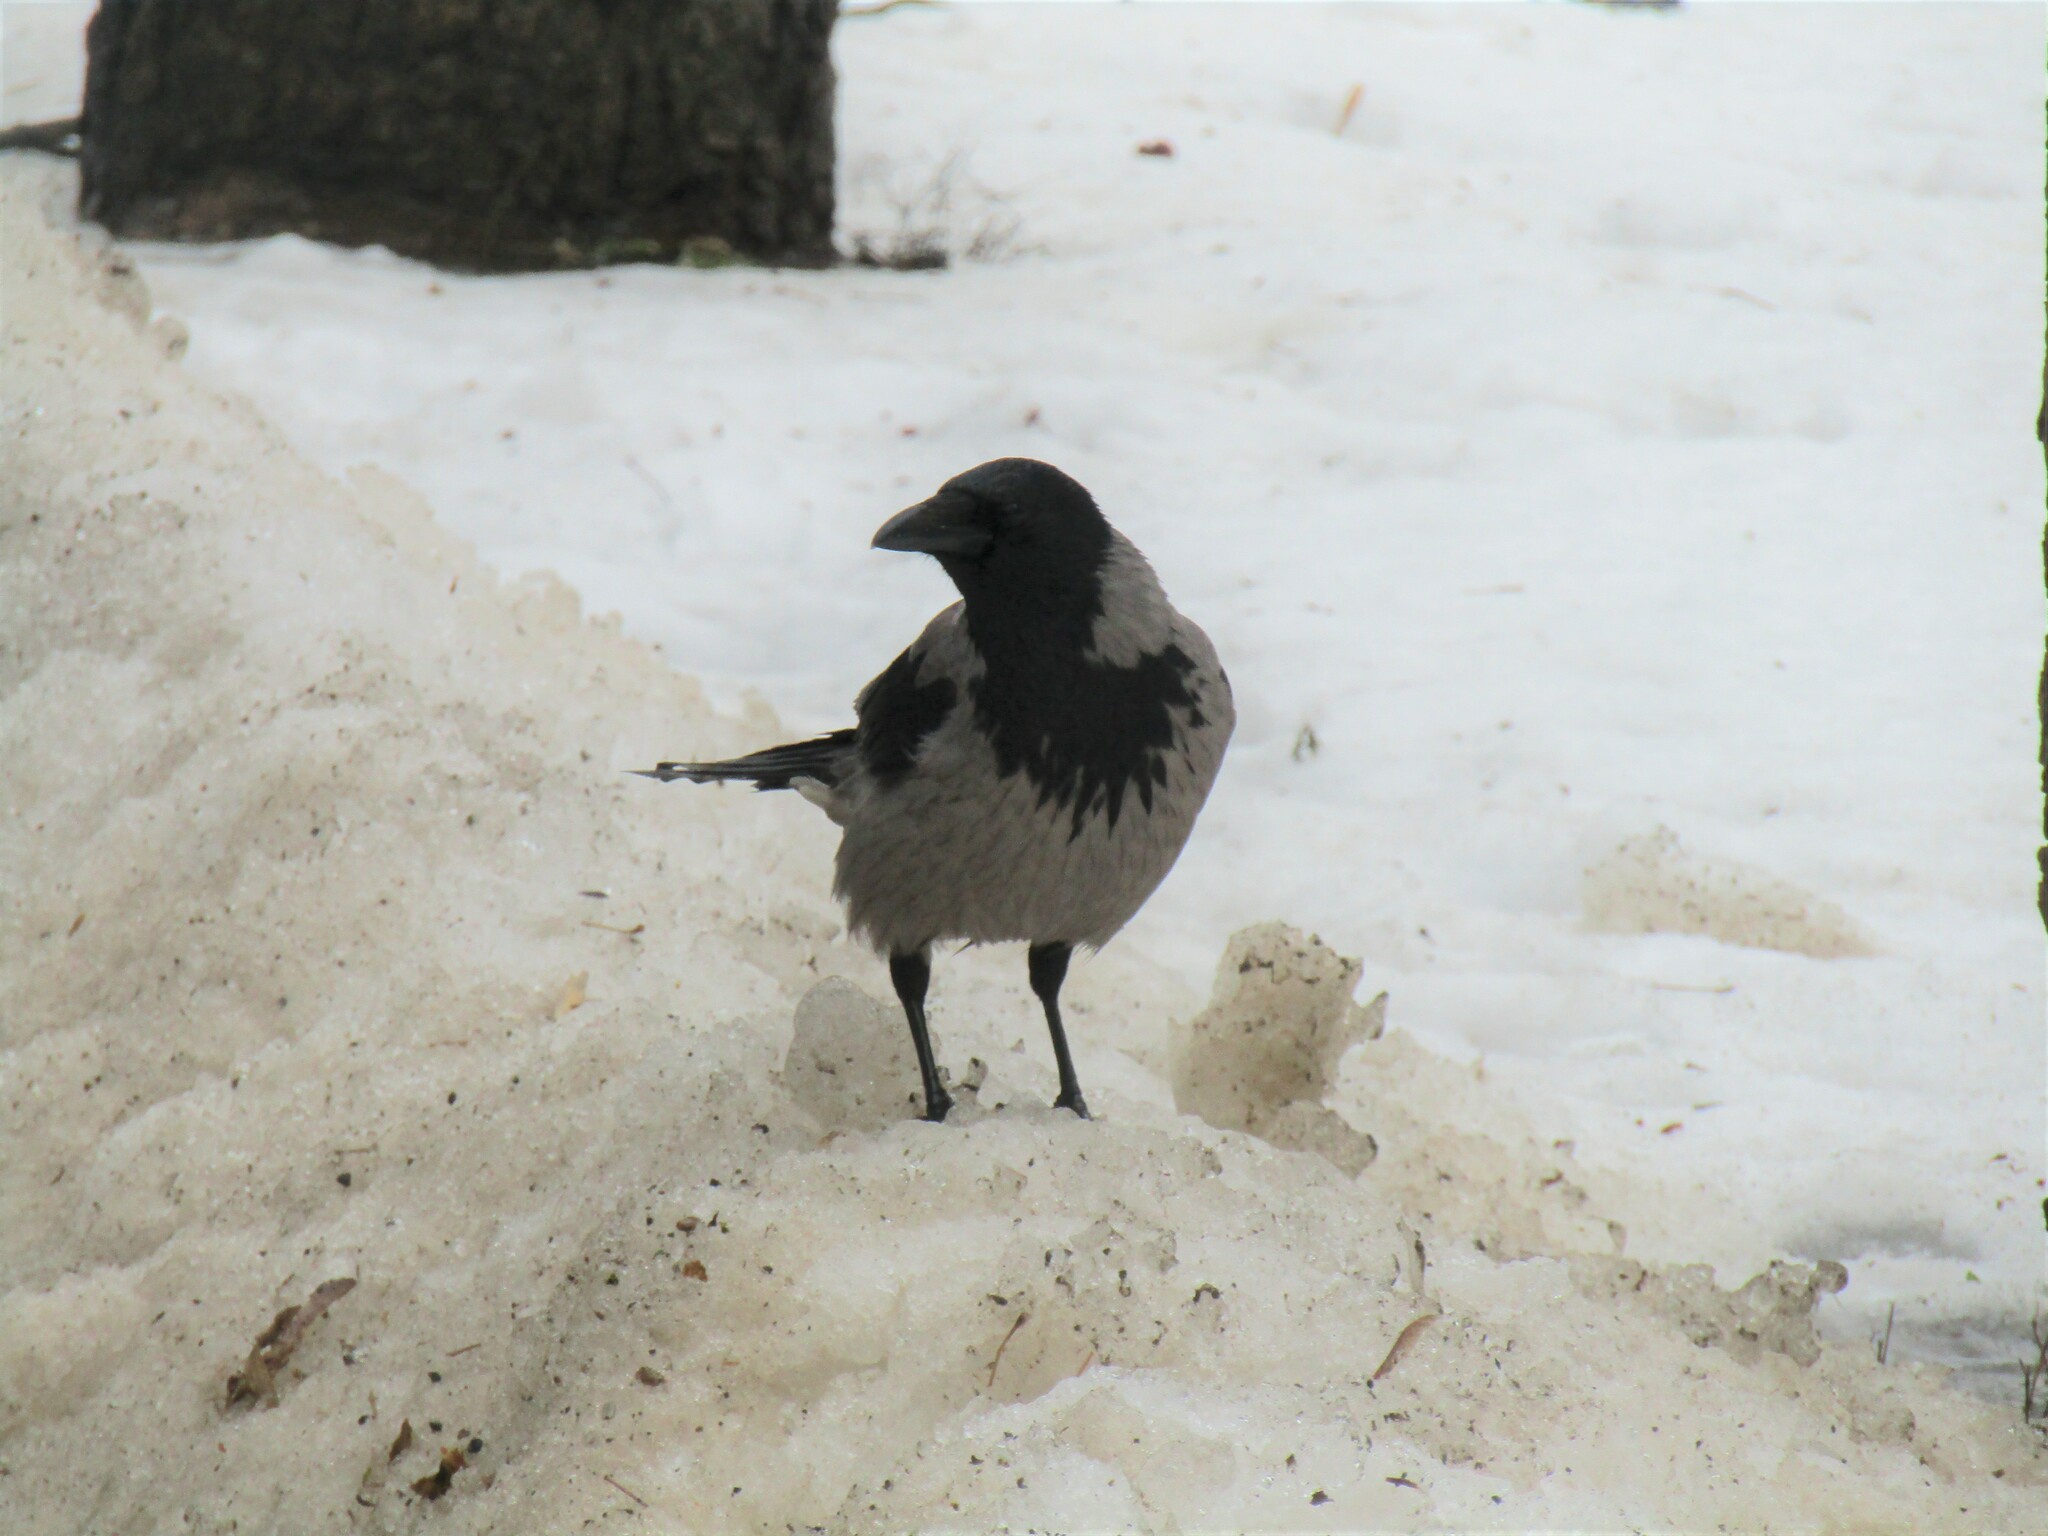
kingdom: Animalia
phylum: Chordata
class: Aves
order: Passeriformes
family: Corvidae
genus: Corvus
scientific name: Corvus cornix
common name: Hooded crow
